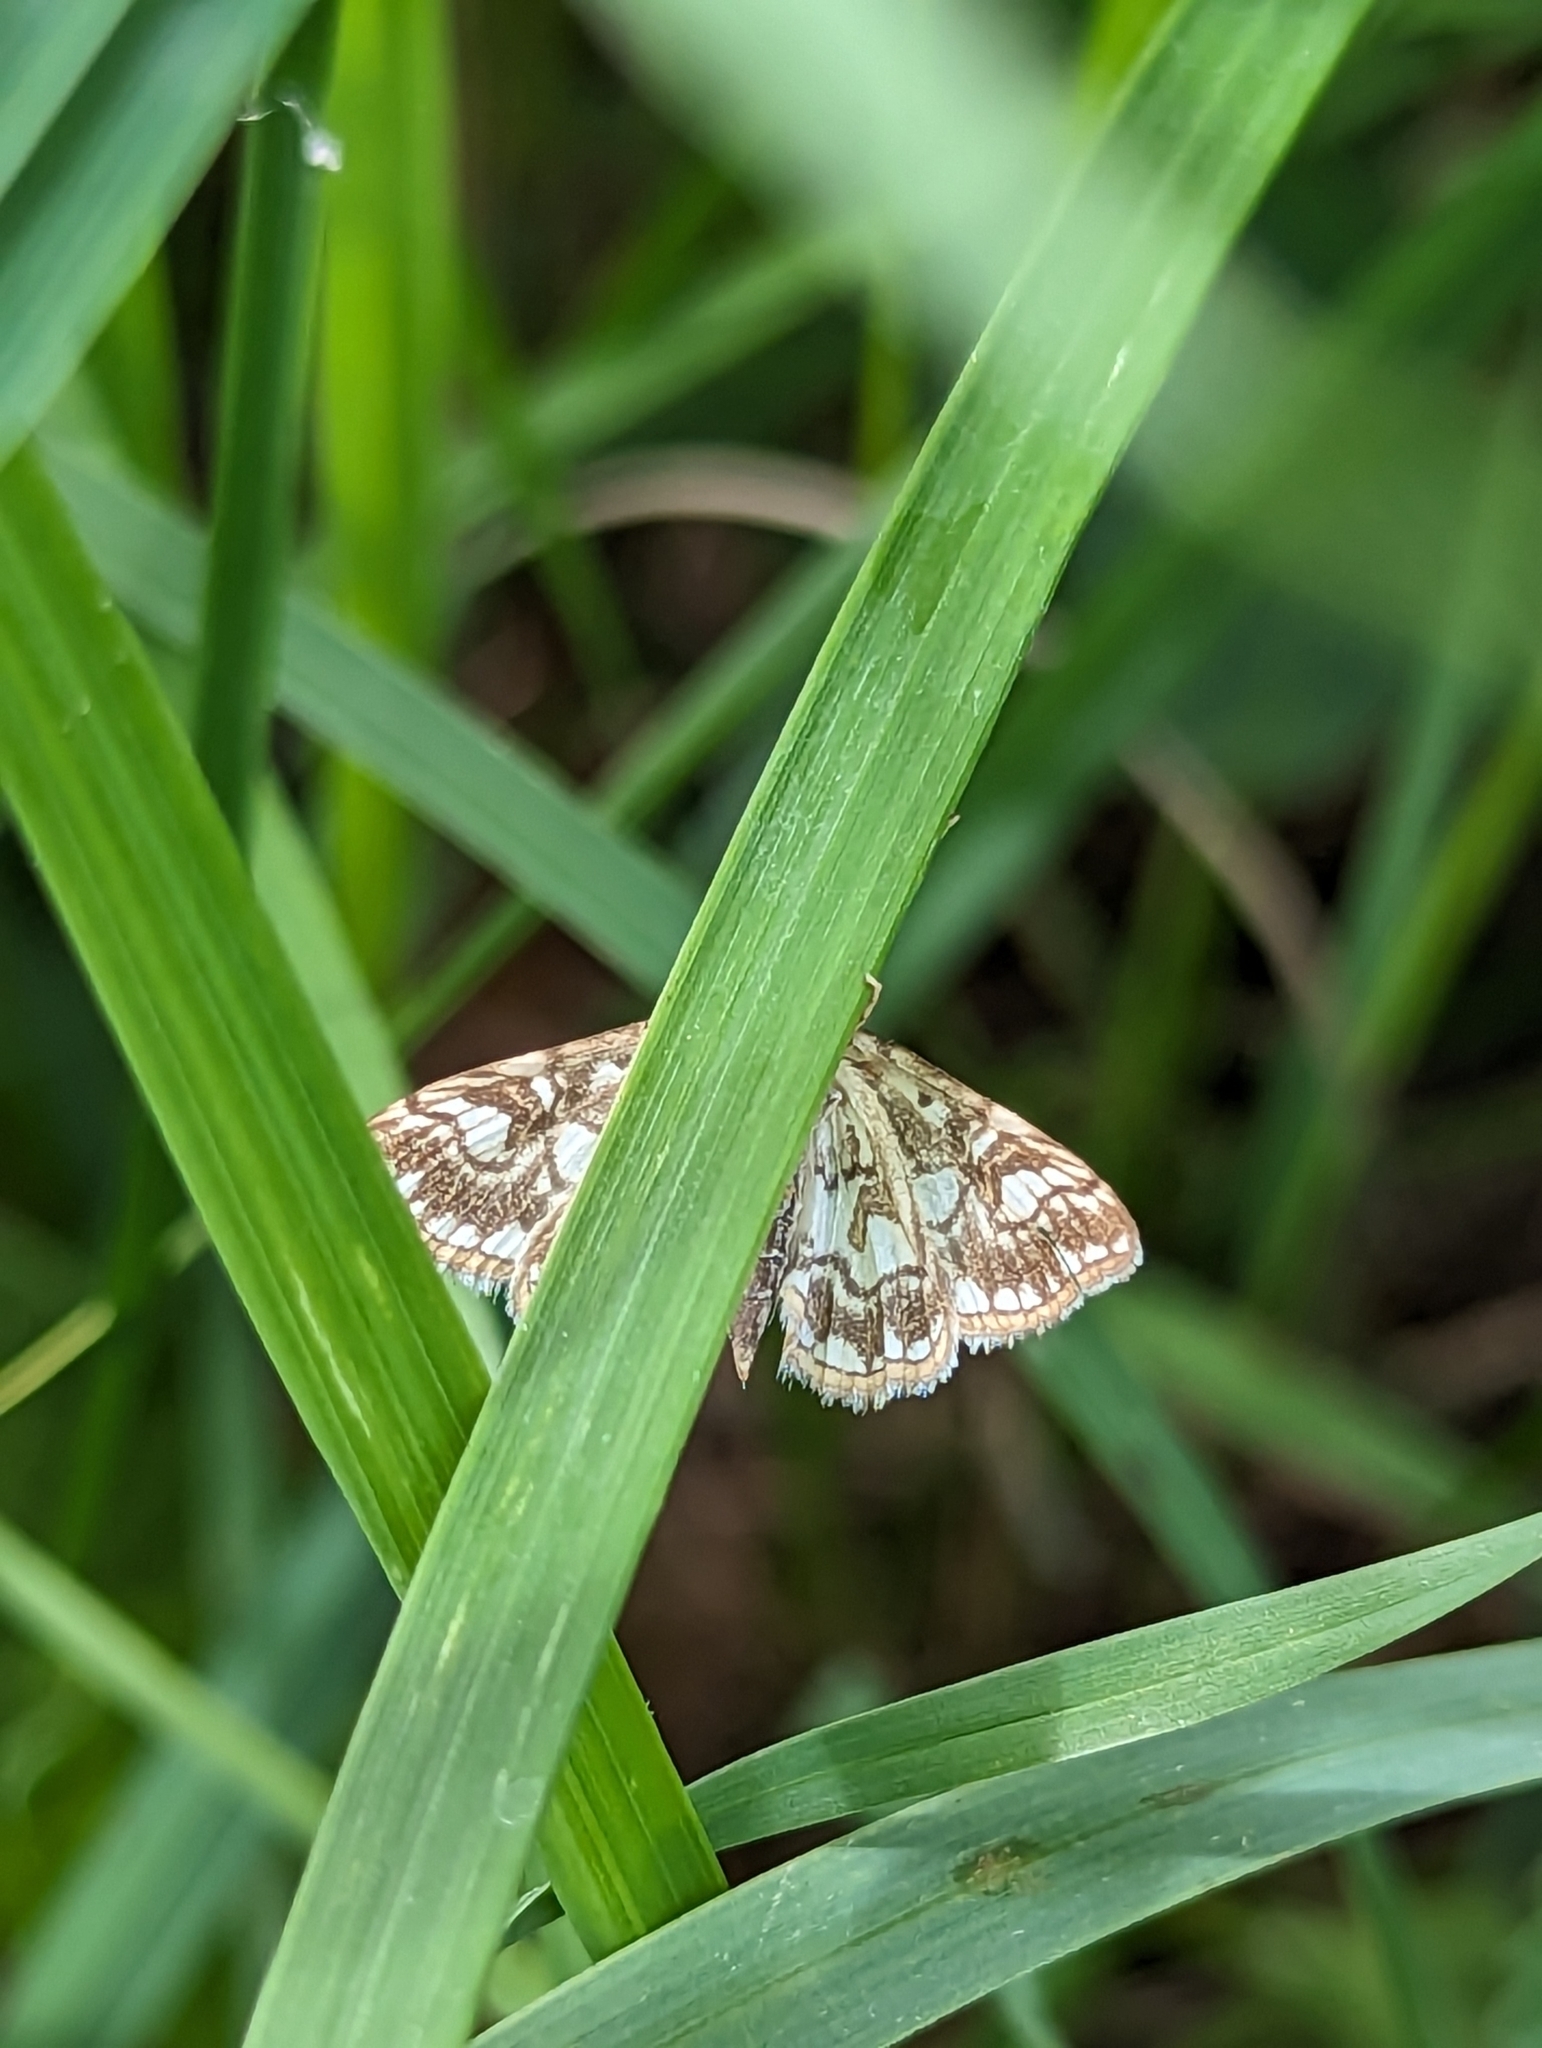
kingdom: Animalia
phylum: Arthropoda
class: Insecta
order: Lepidoptera
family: Crambidae
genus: Elophila
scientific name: Elophila nymphaeata
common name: Brown china-mark
